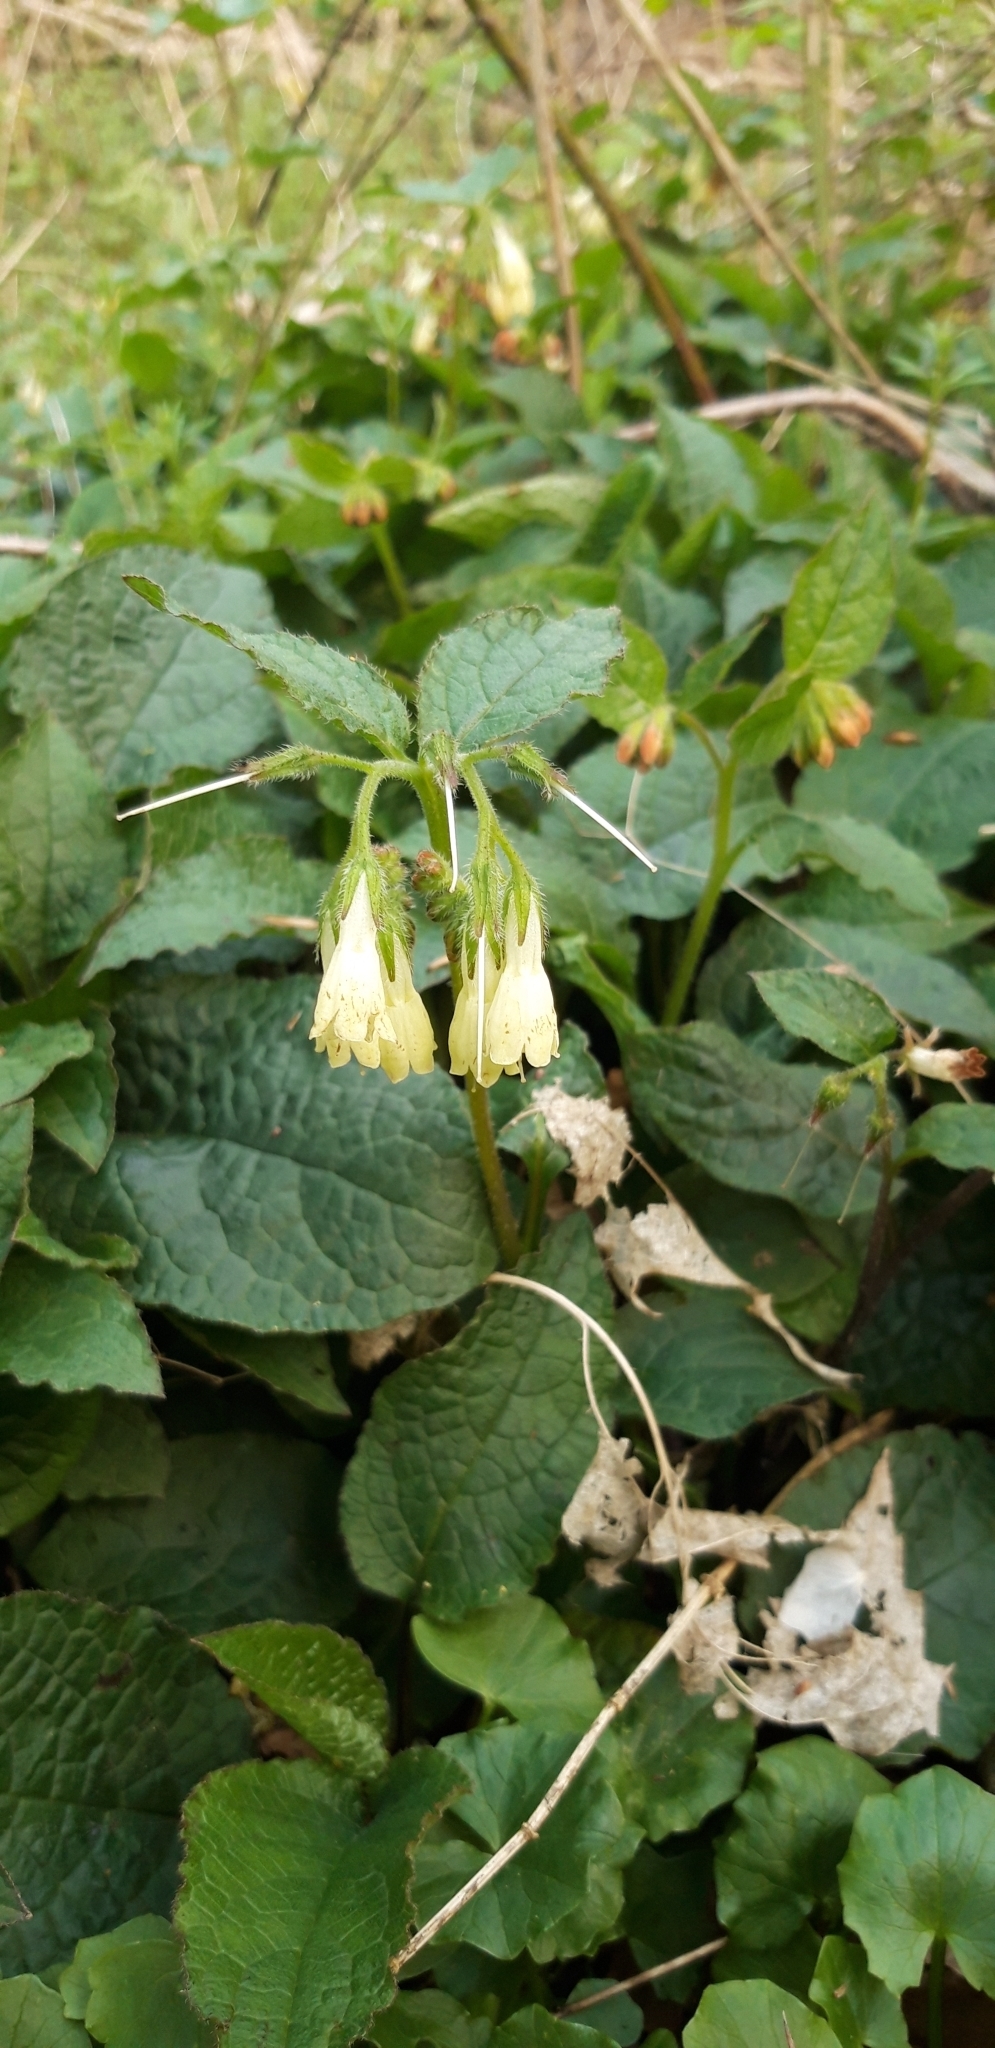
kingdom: Plantae
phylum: Tracheophyta
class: Magnoliopsida
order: Boraginales
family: Boraginaceae
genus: Symphytum
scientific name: Symphytum tuberosum
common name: Tuberous comfrey
